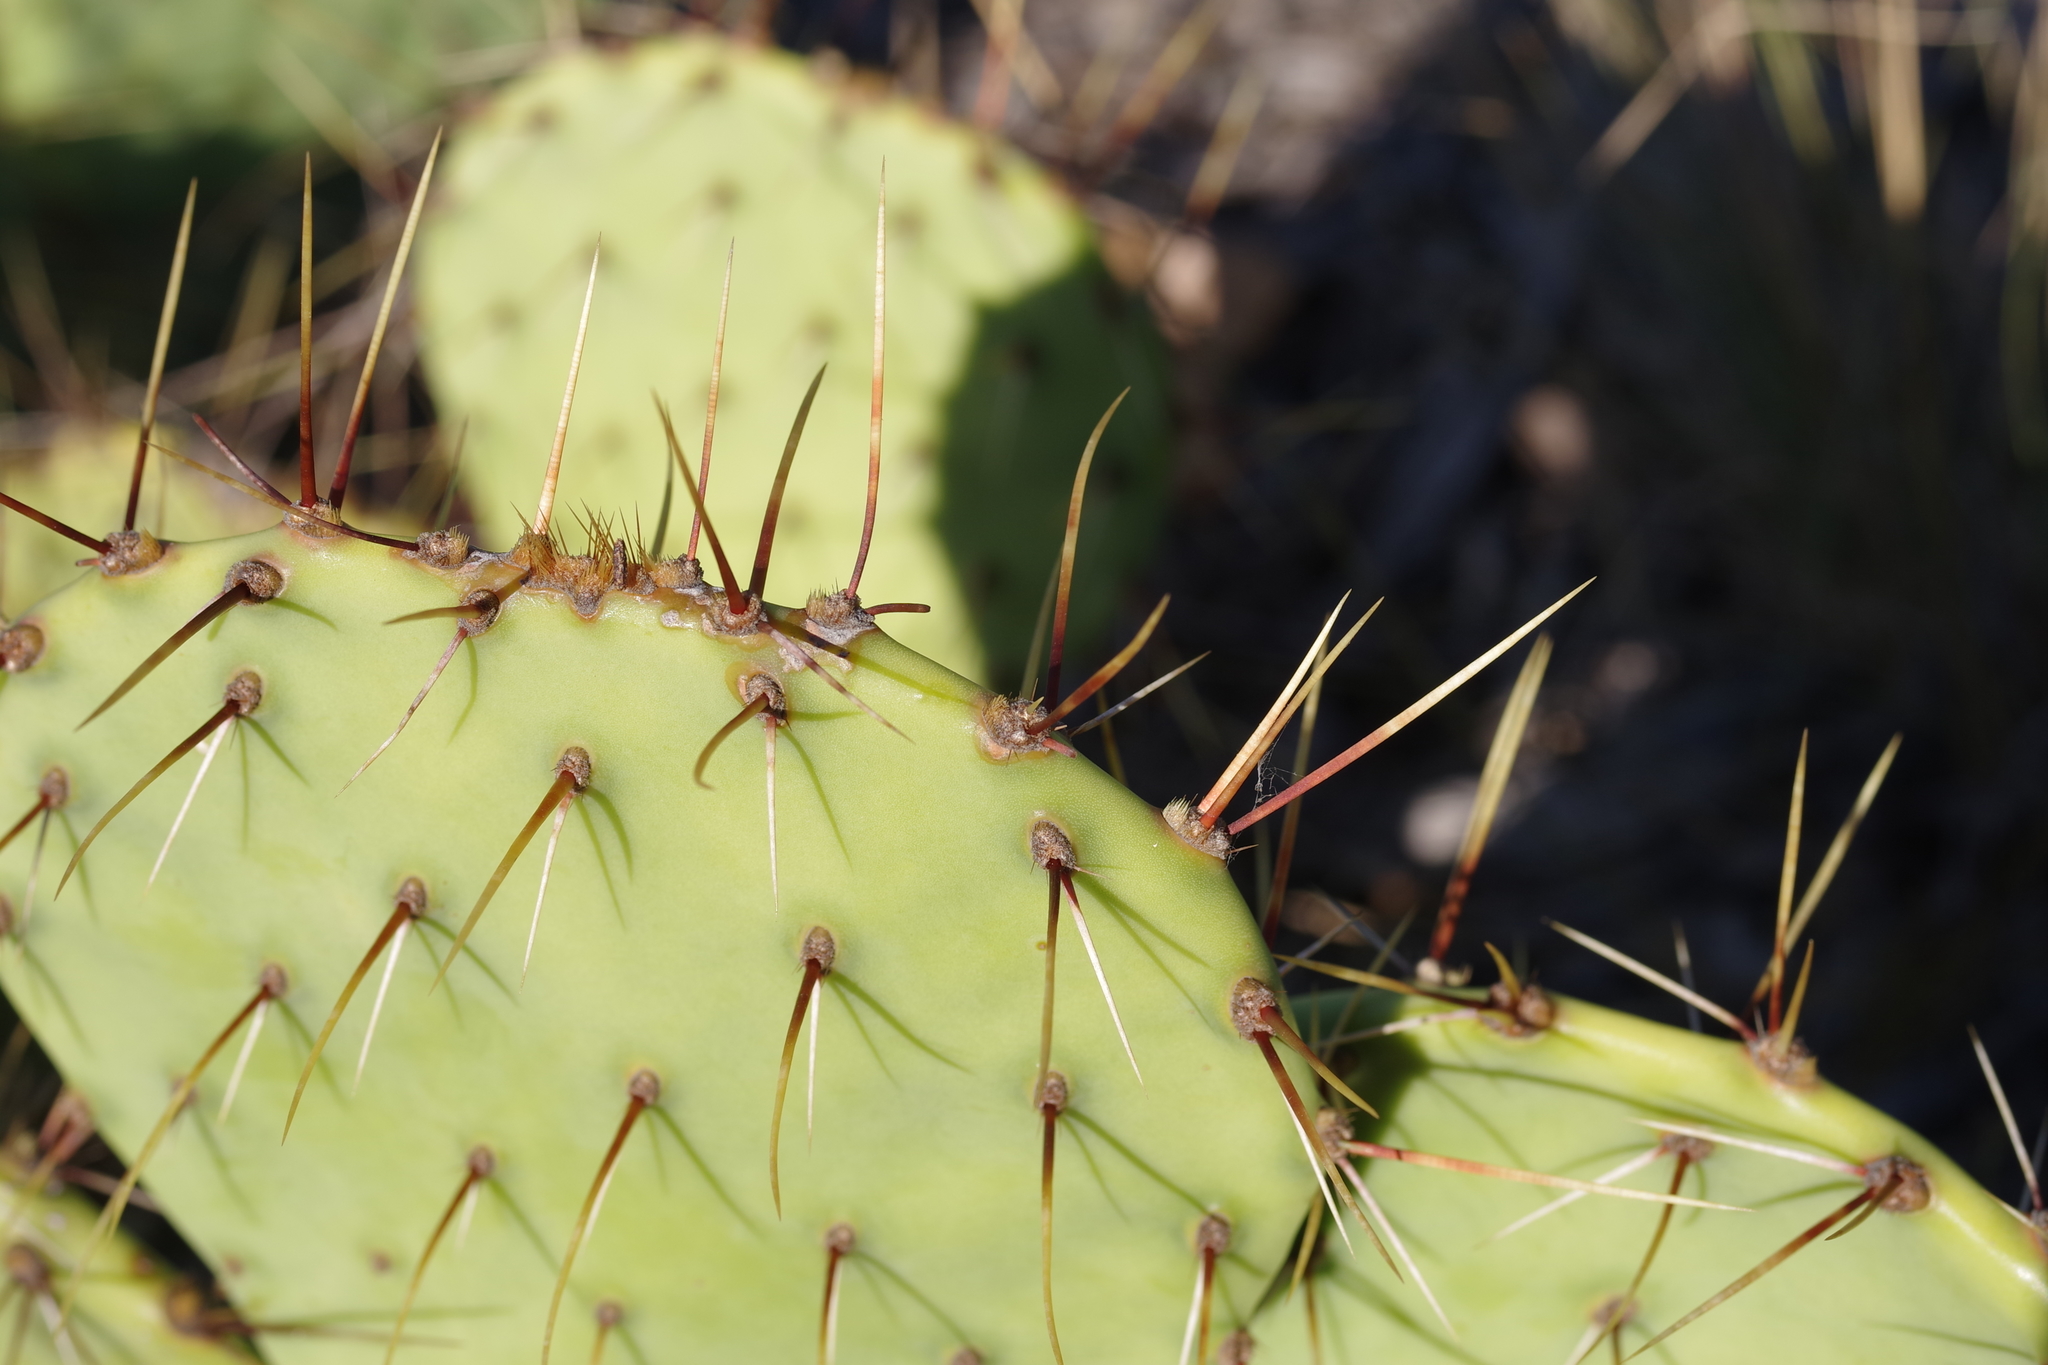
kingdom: Plantae
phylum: Tracheophyta
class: Magnoliopsida
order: Caryophyllales
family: Cactaceae
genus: Opuntia
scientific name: Opuntia phaeacantha
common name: New mexico prickly-pear
